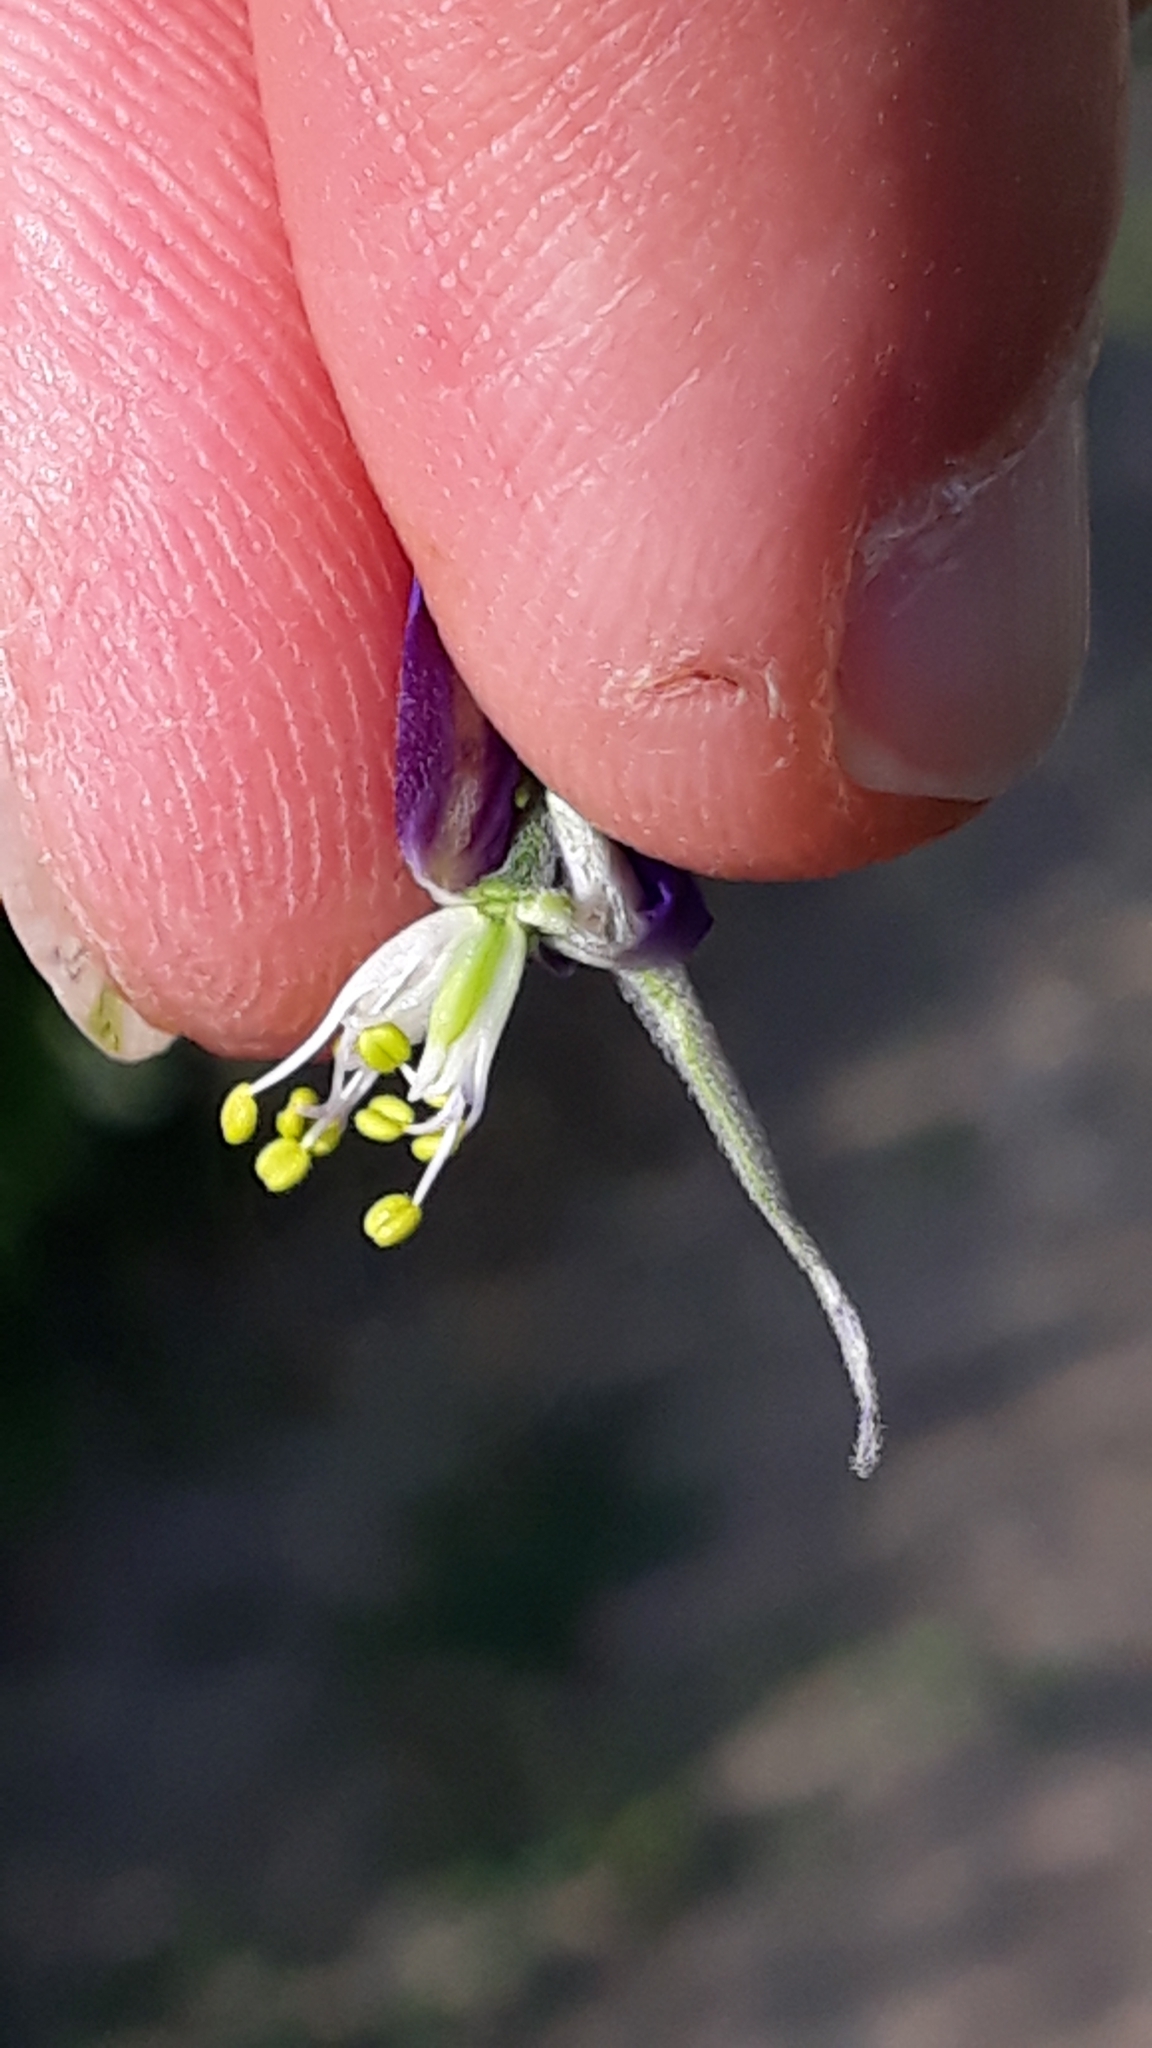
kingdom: Plantae
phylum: Tracheophyta
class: Magnoliopsida
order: Ranunculales
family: Ranunculaceae
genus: Delphinium
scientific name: Delphinium consolida
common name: Branching larkspur
